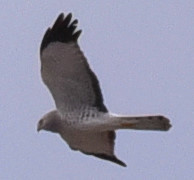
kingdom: Animalia
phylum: Chordata
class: Aves
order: Accipitriformes
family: Accipitridae
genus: Circus
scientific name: Circus cyaneus
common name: Hen harrier
